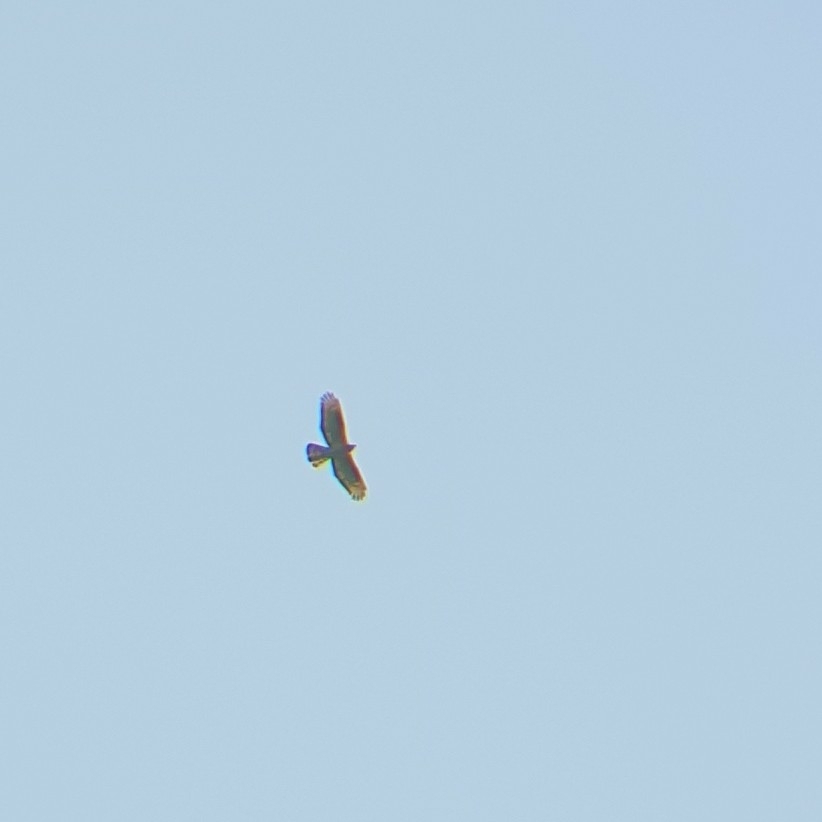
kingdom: Animalia
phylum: Chordata
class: Aves
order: Accipitriformes
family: Accipitridae
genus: Pernis
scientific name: Pernis apivorus
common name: European honey buzzard
